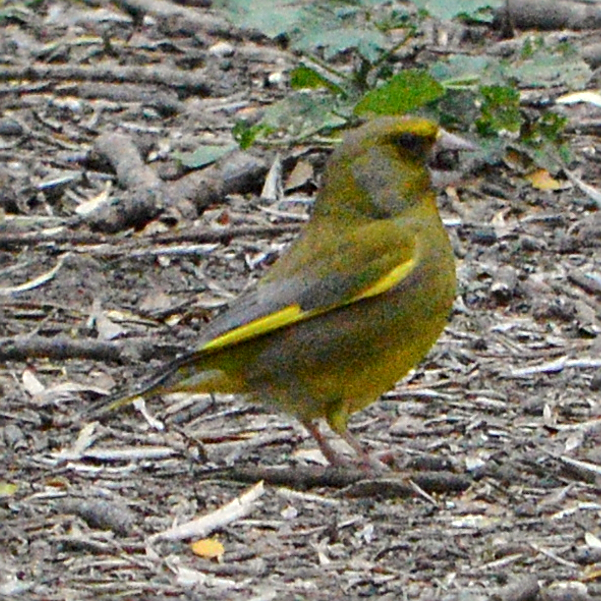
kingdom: Plantae
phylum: Tracheophyta
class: Liliopsida
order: Poales
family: Poaceae
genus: Chloris
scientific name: Chloris chloris
